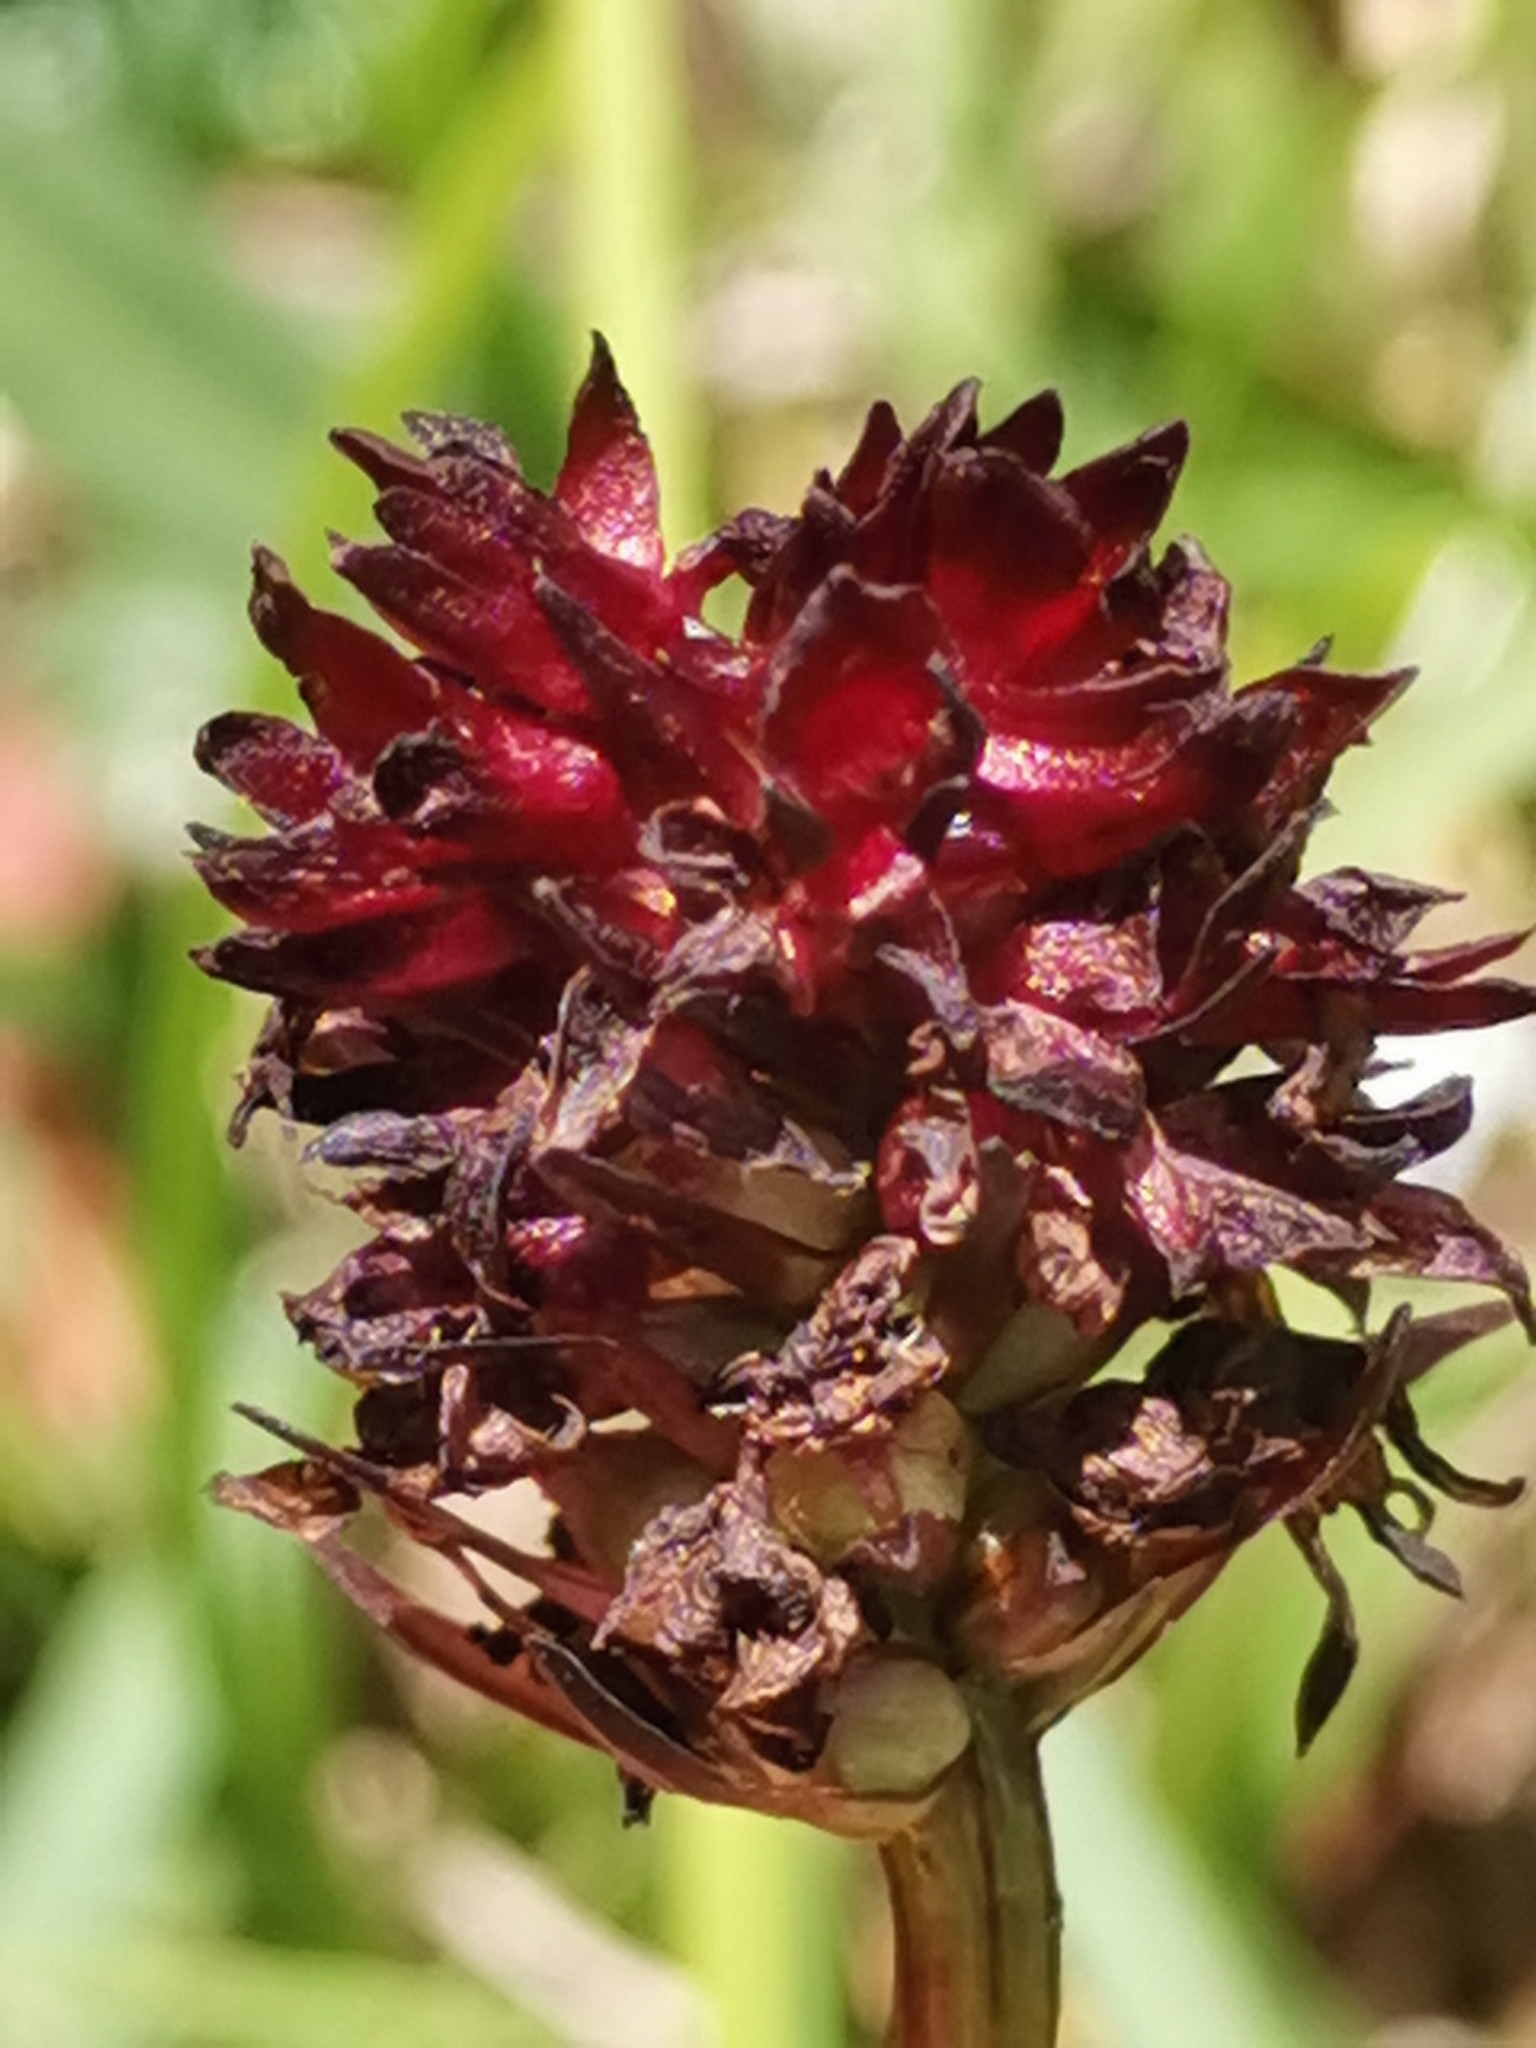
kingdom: Plantae
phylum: Tracheophyta
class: Liliopsida
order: Asparagales
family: Orchidaceae
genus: Gymnadenia
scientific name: Gymnadenia rhellicani
